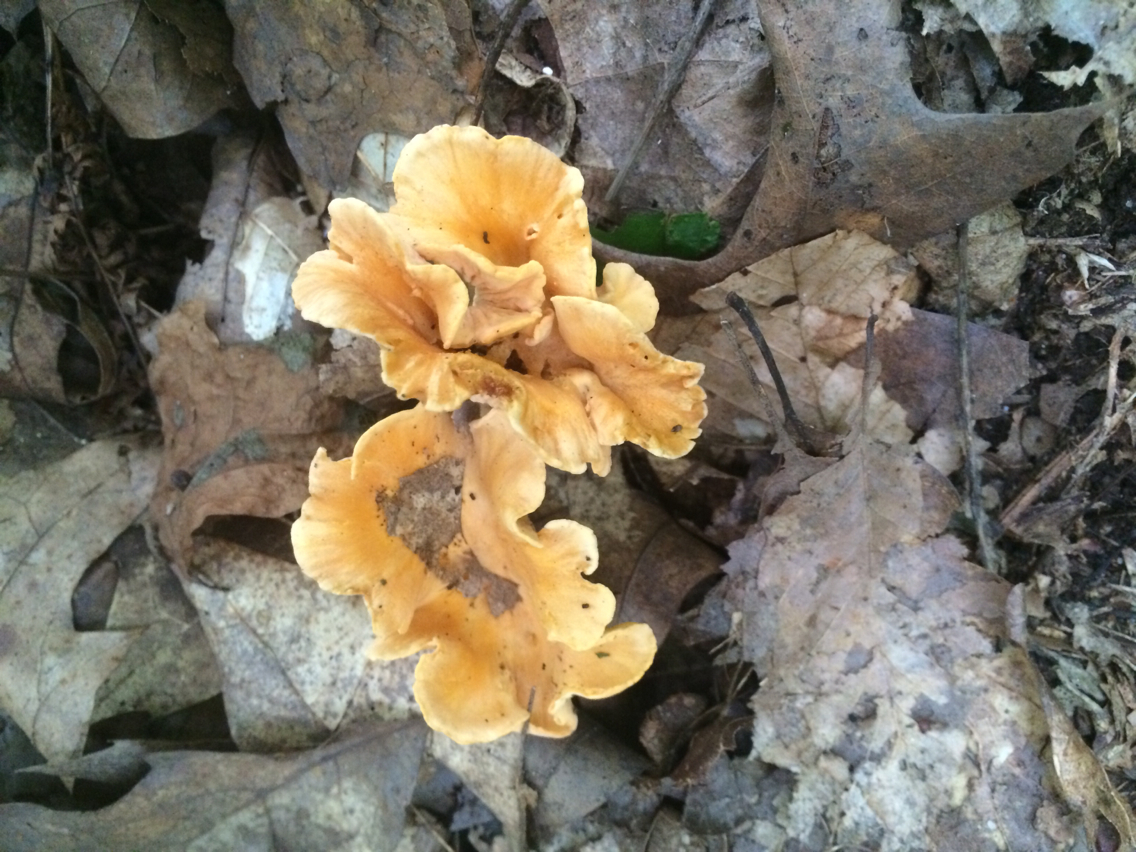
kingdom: Fungi
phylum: Basidiomycota
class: Agaricomycetes
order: Cantharellales
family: Hydnaceae
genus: Cantharellus
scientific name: Cantharellus lateritius
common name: Smooth chanterelle
